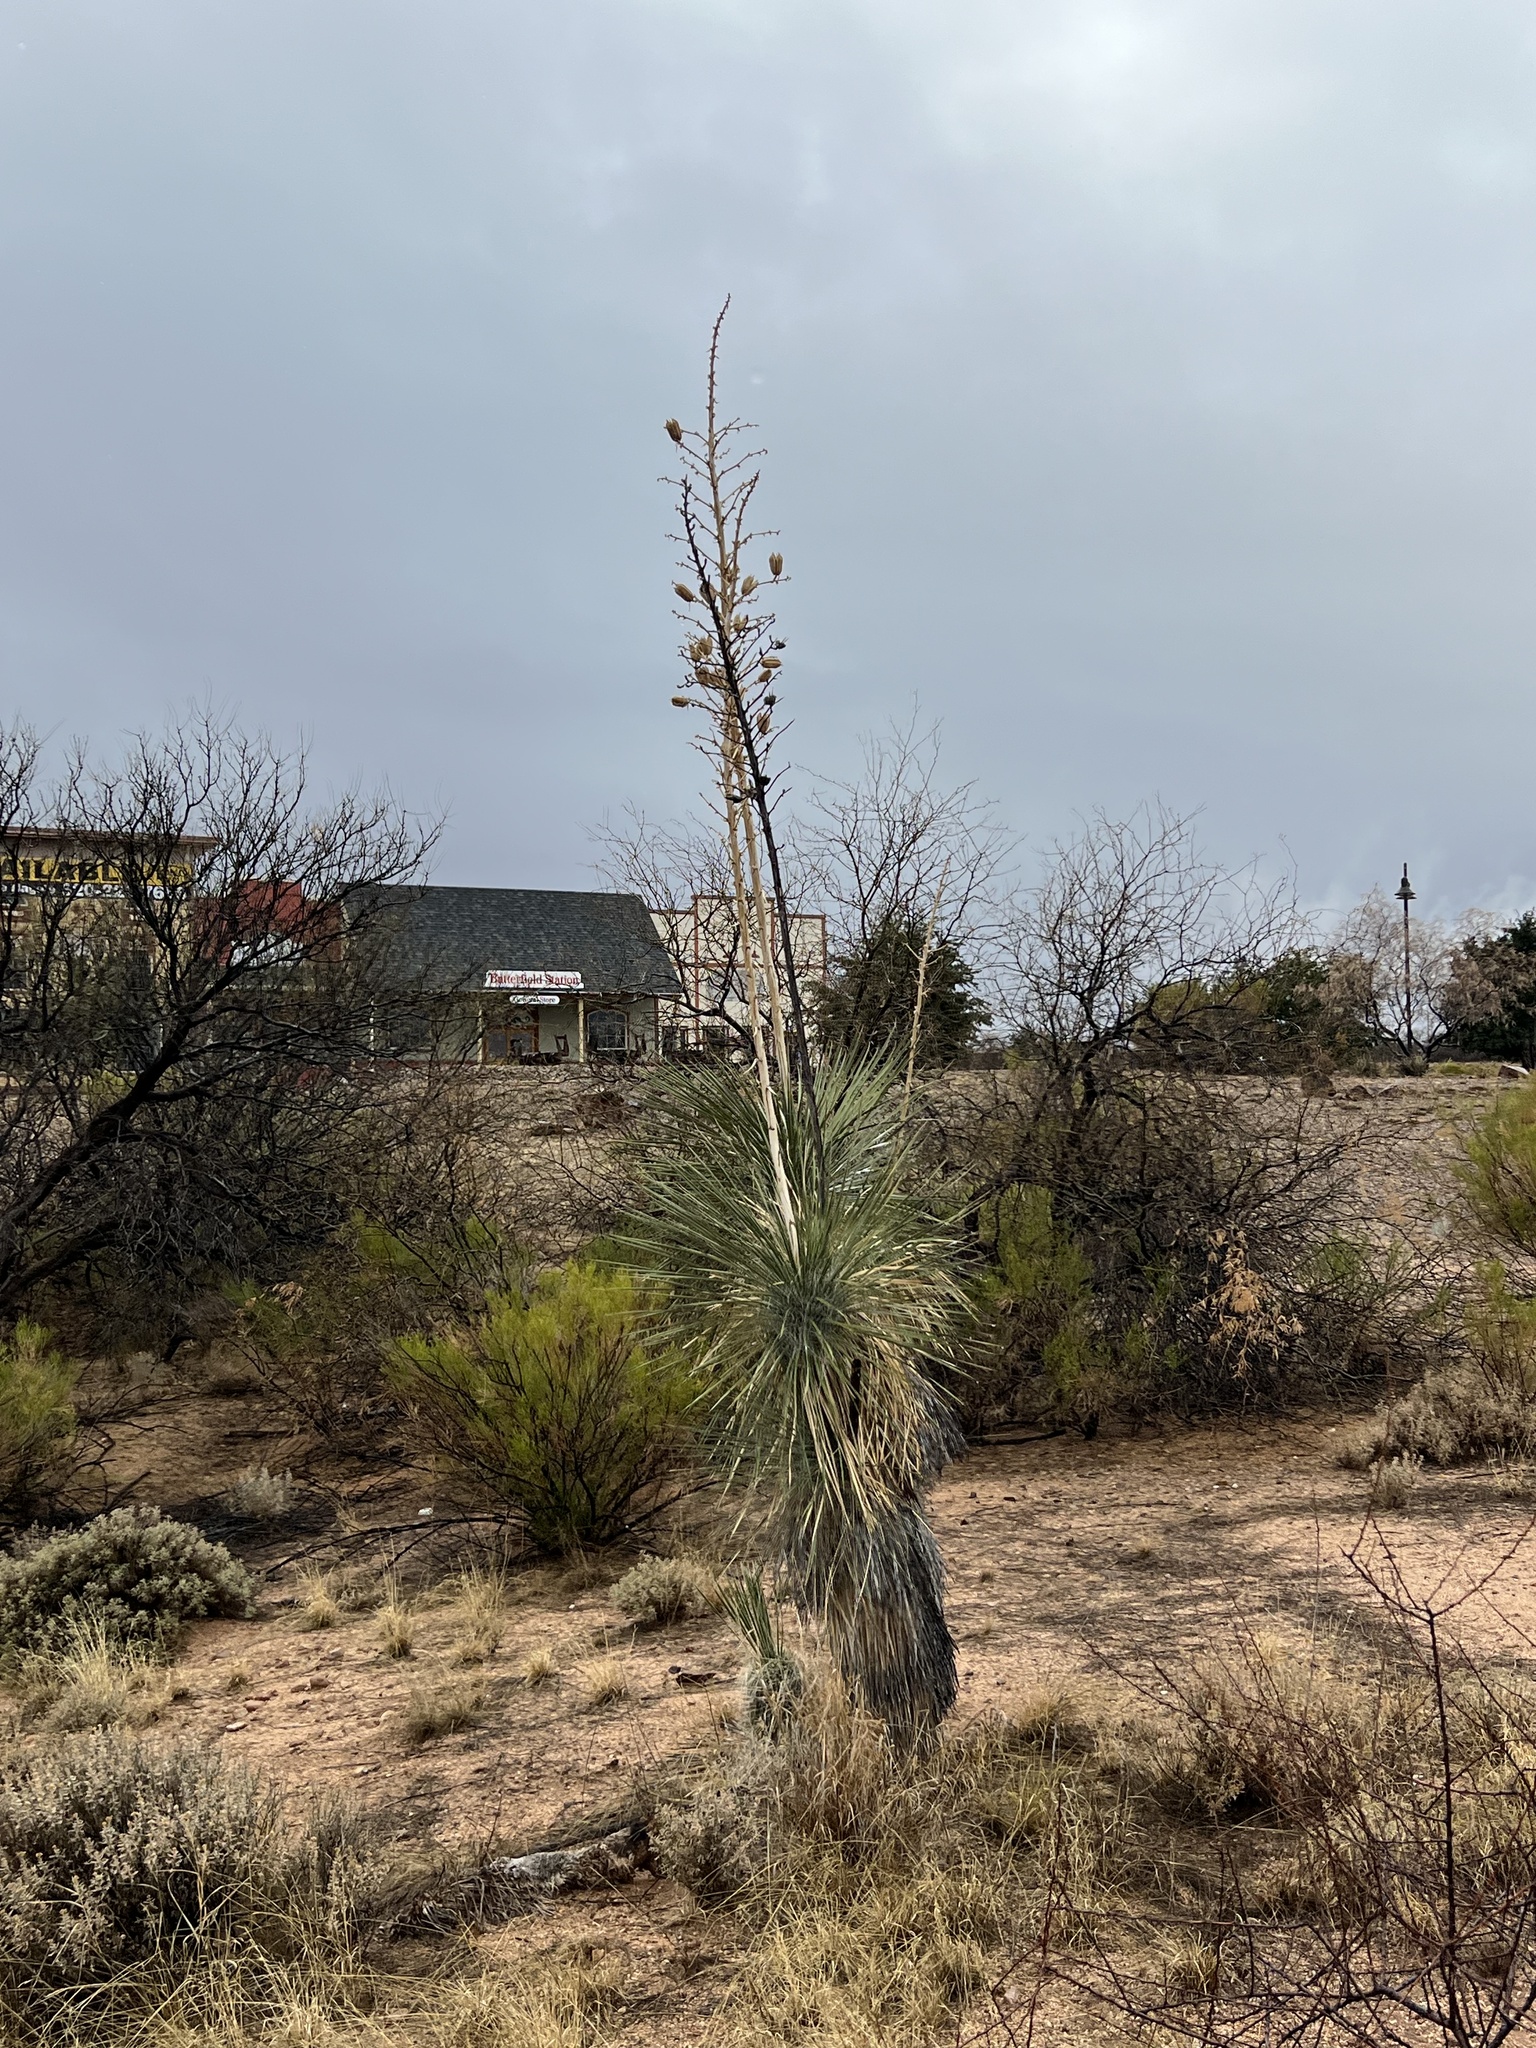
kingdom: Plantae
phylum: Tracheophyta
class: Liliopsida
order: Asparagales
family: Asparagaceae
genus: Yucca
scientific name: Yucca elata
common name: Palmella
